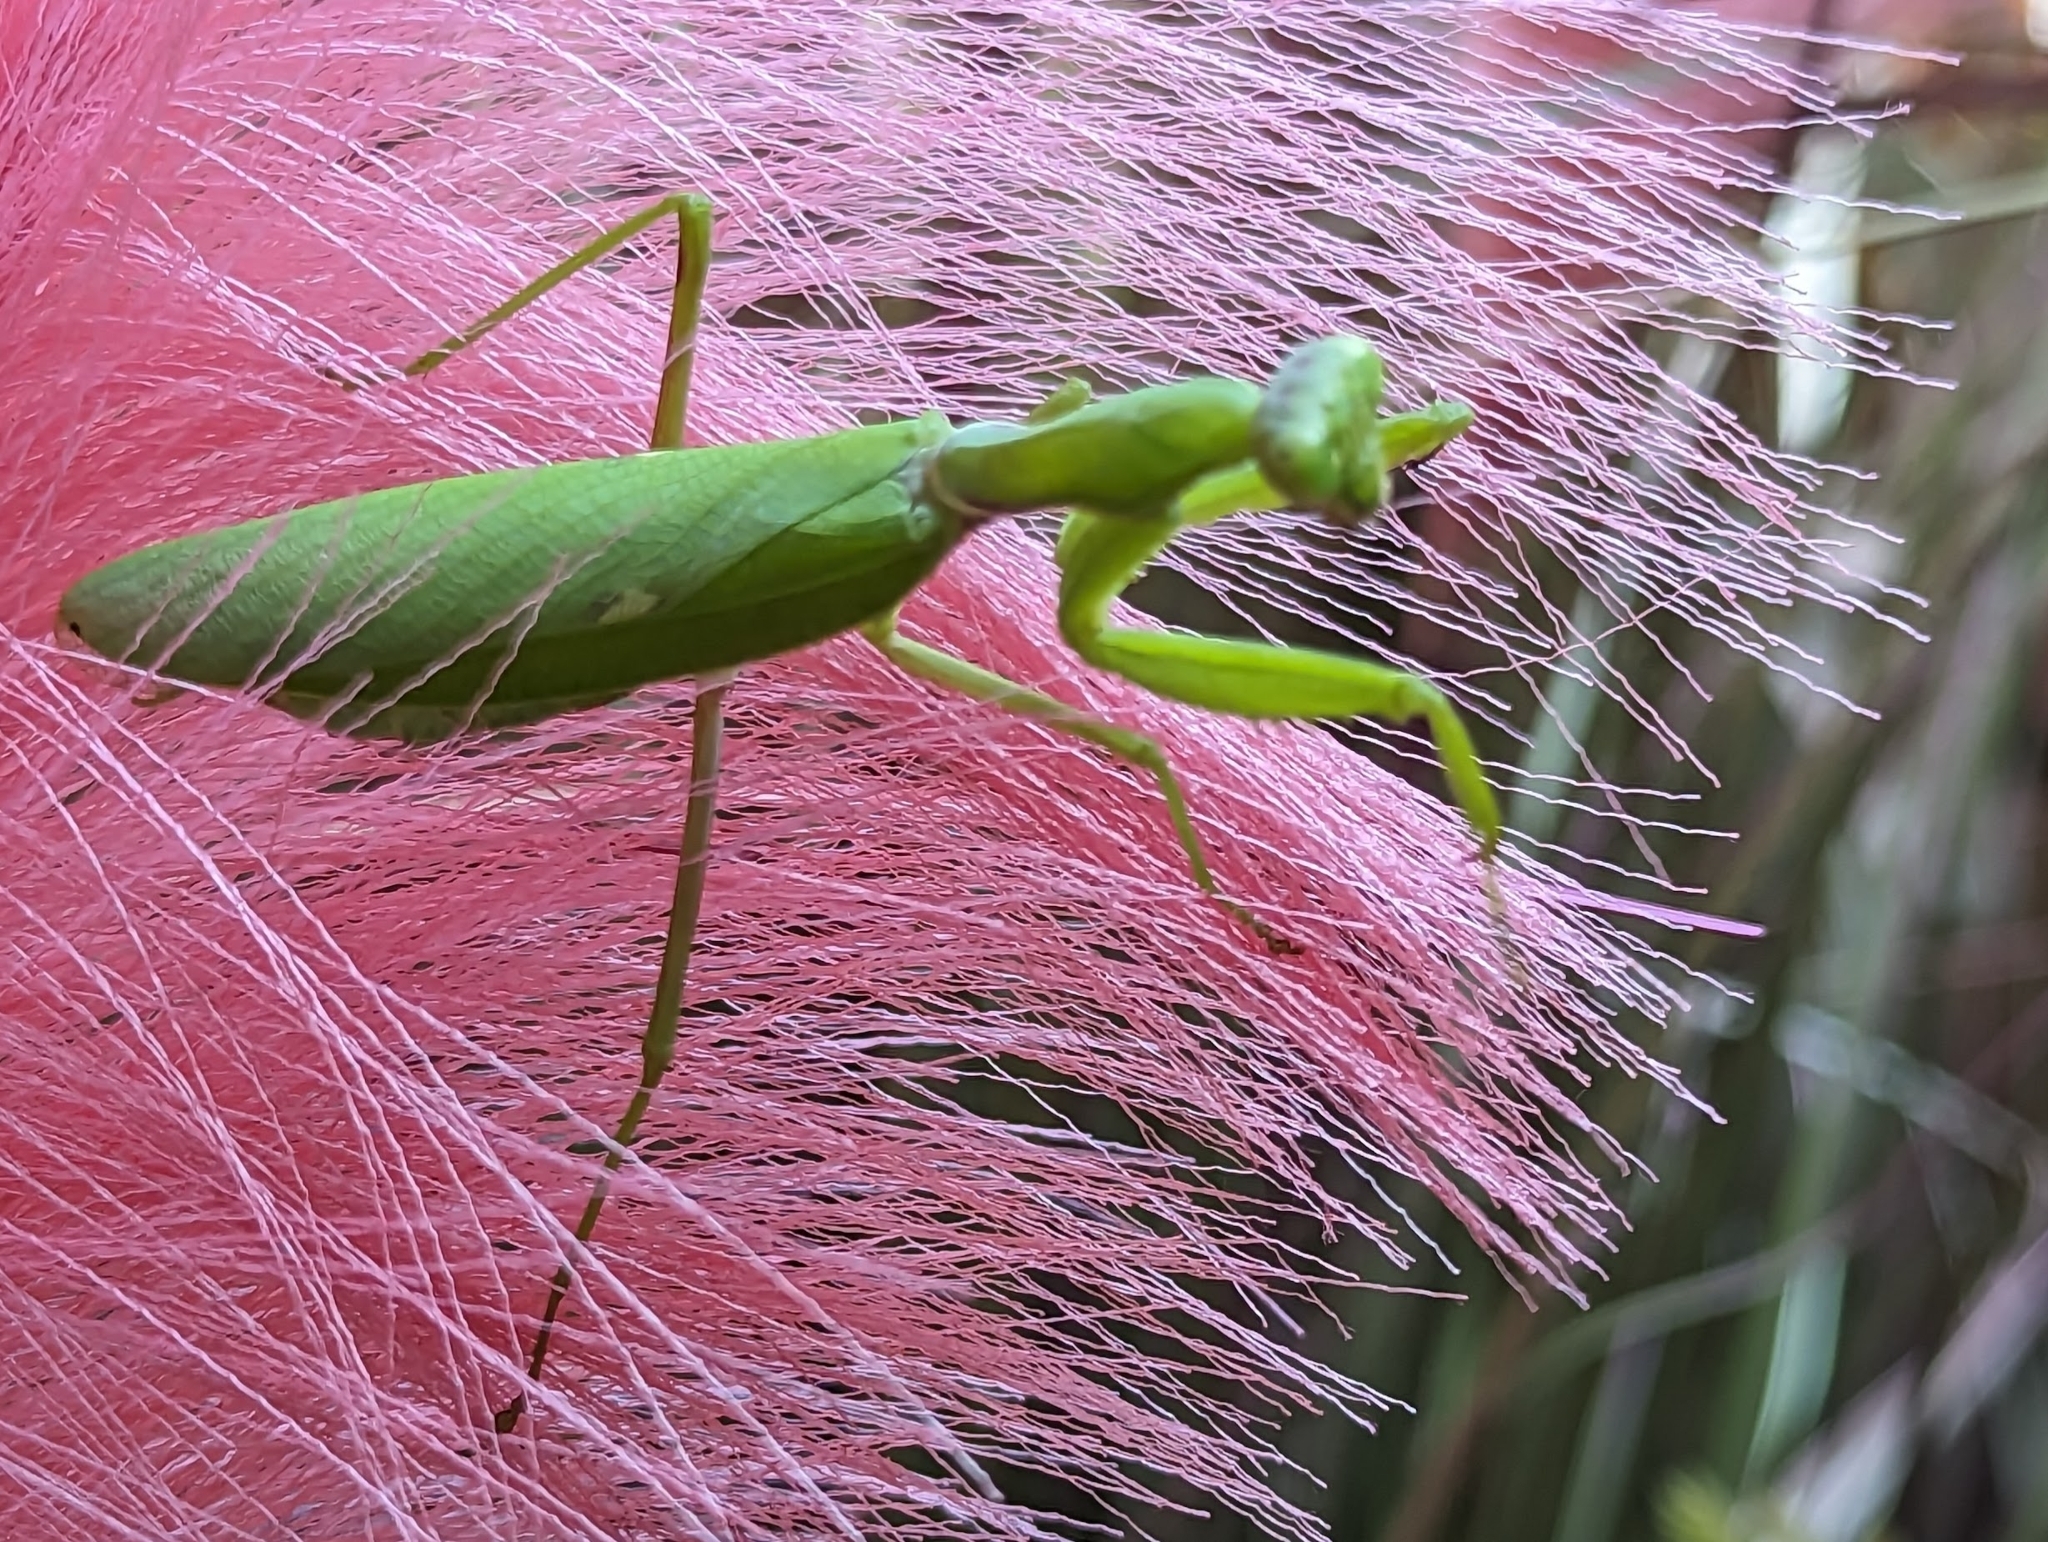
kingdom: Animalia
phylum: Arthropoda
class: Insecta
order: Mantodea
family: Mantidae
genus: Hierodula
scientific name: Hierodula patellifera
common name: Asian mantis
